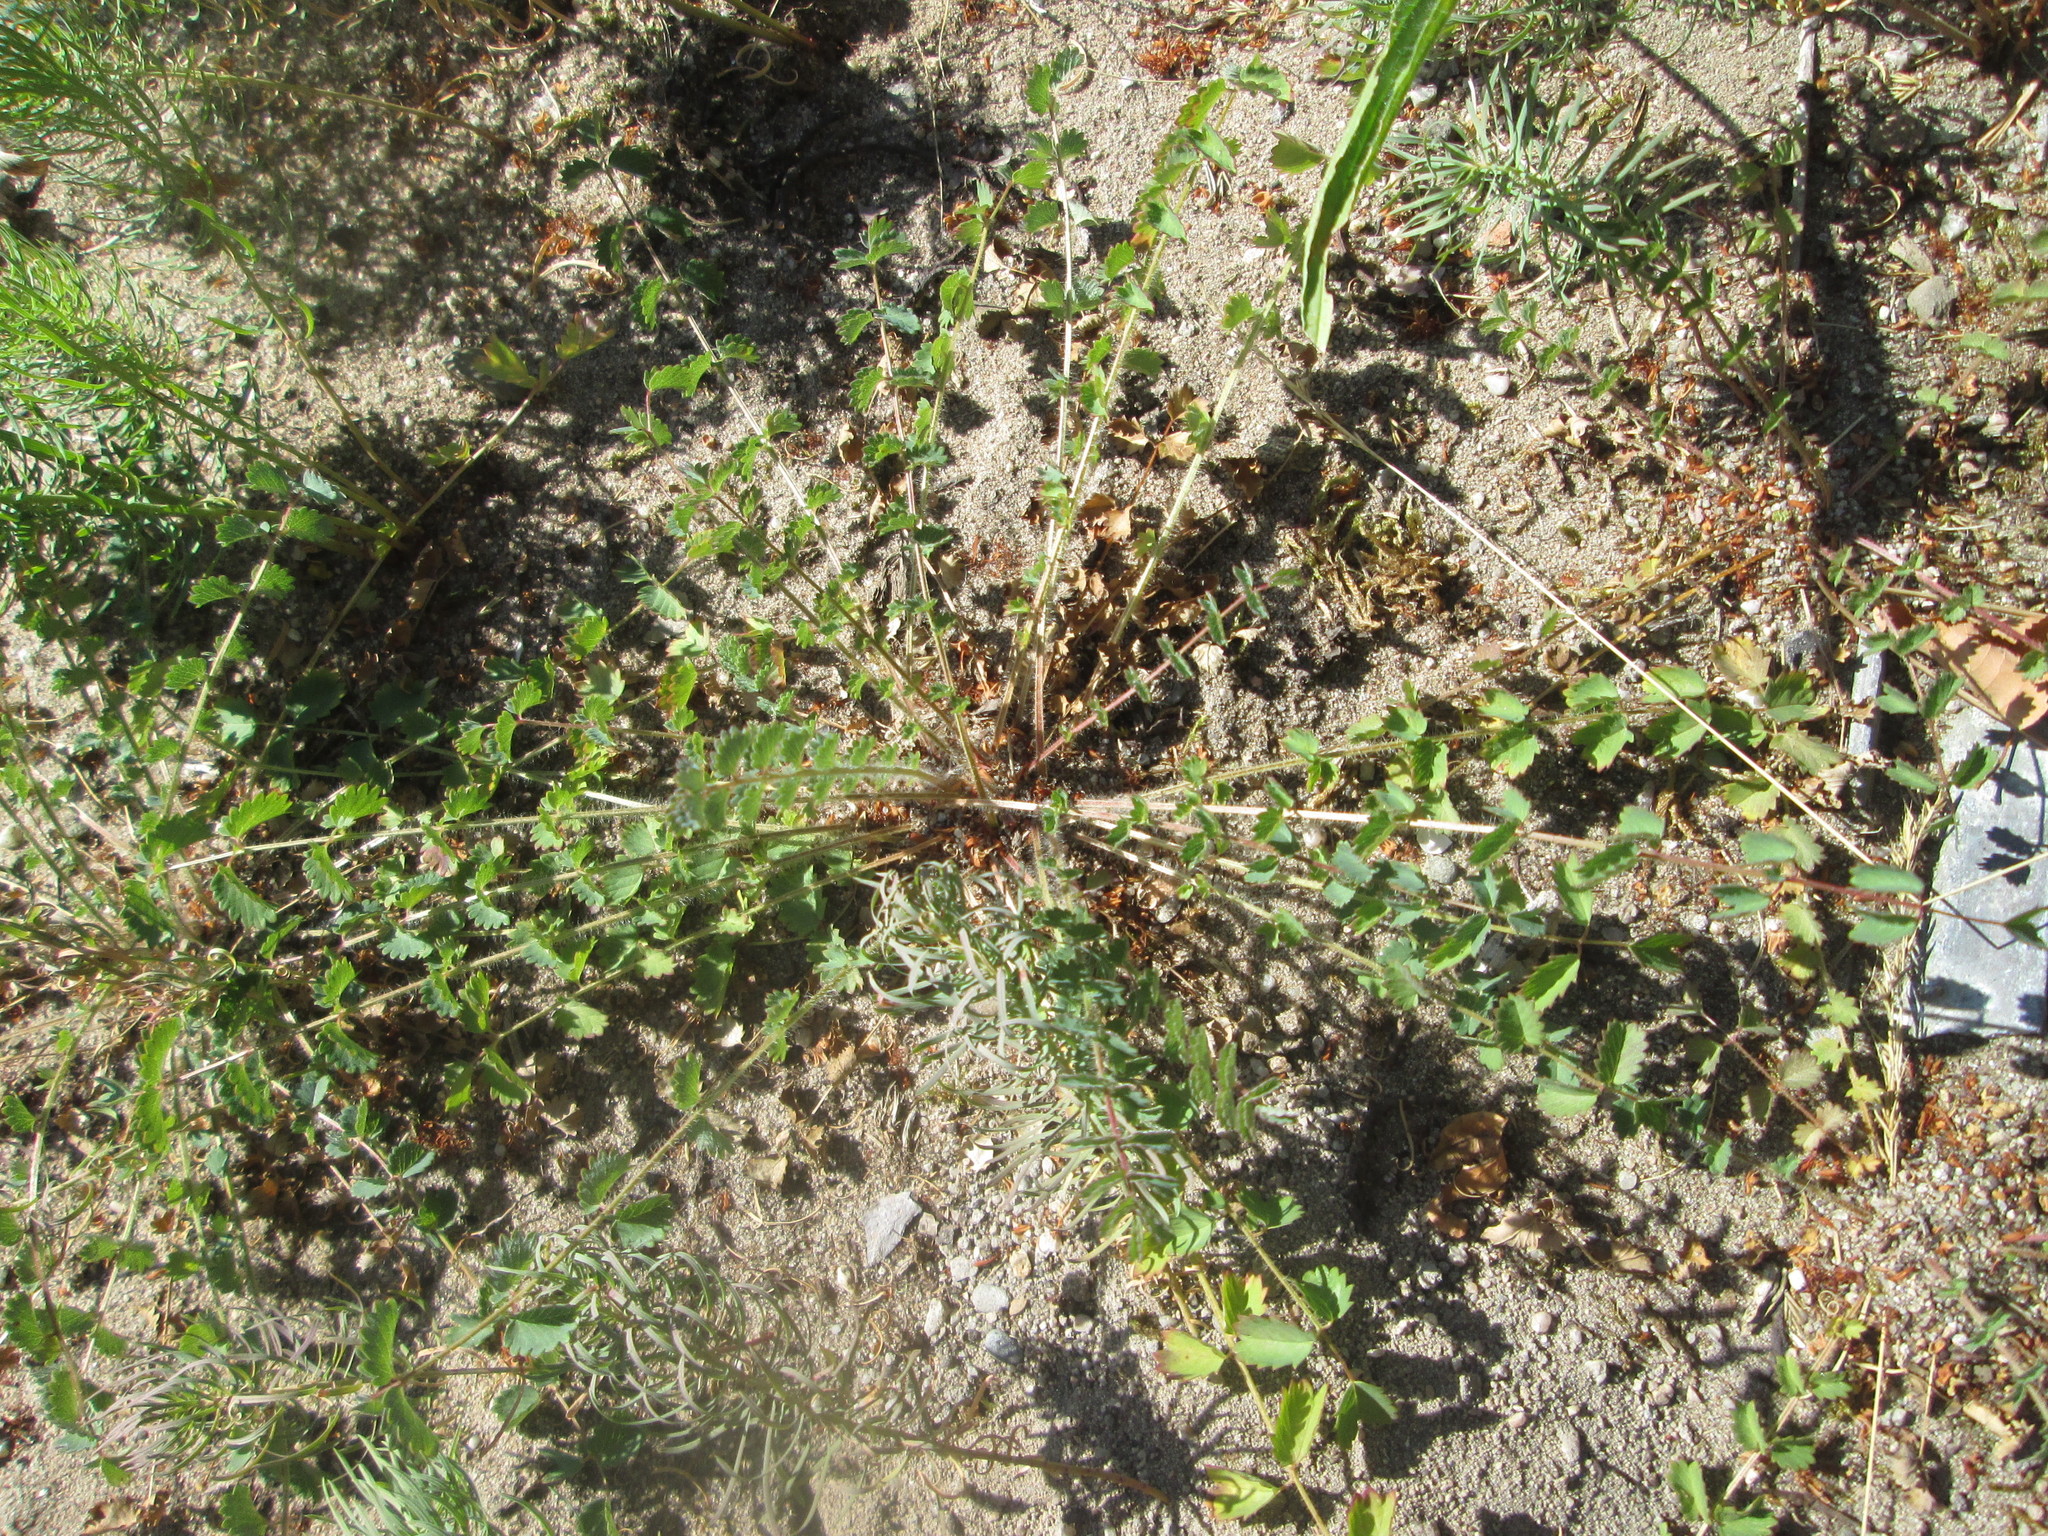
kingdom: Plantae
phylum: Tracheophyta
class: Magnoliopsida
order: Rosales
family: Rosaceae
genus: Poterium
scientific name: Poterium sanguisorba
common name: Salad burnet
